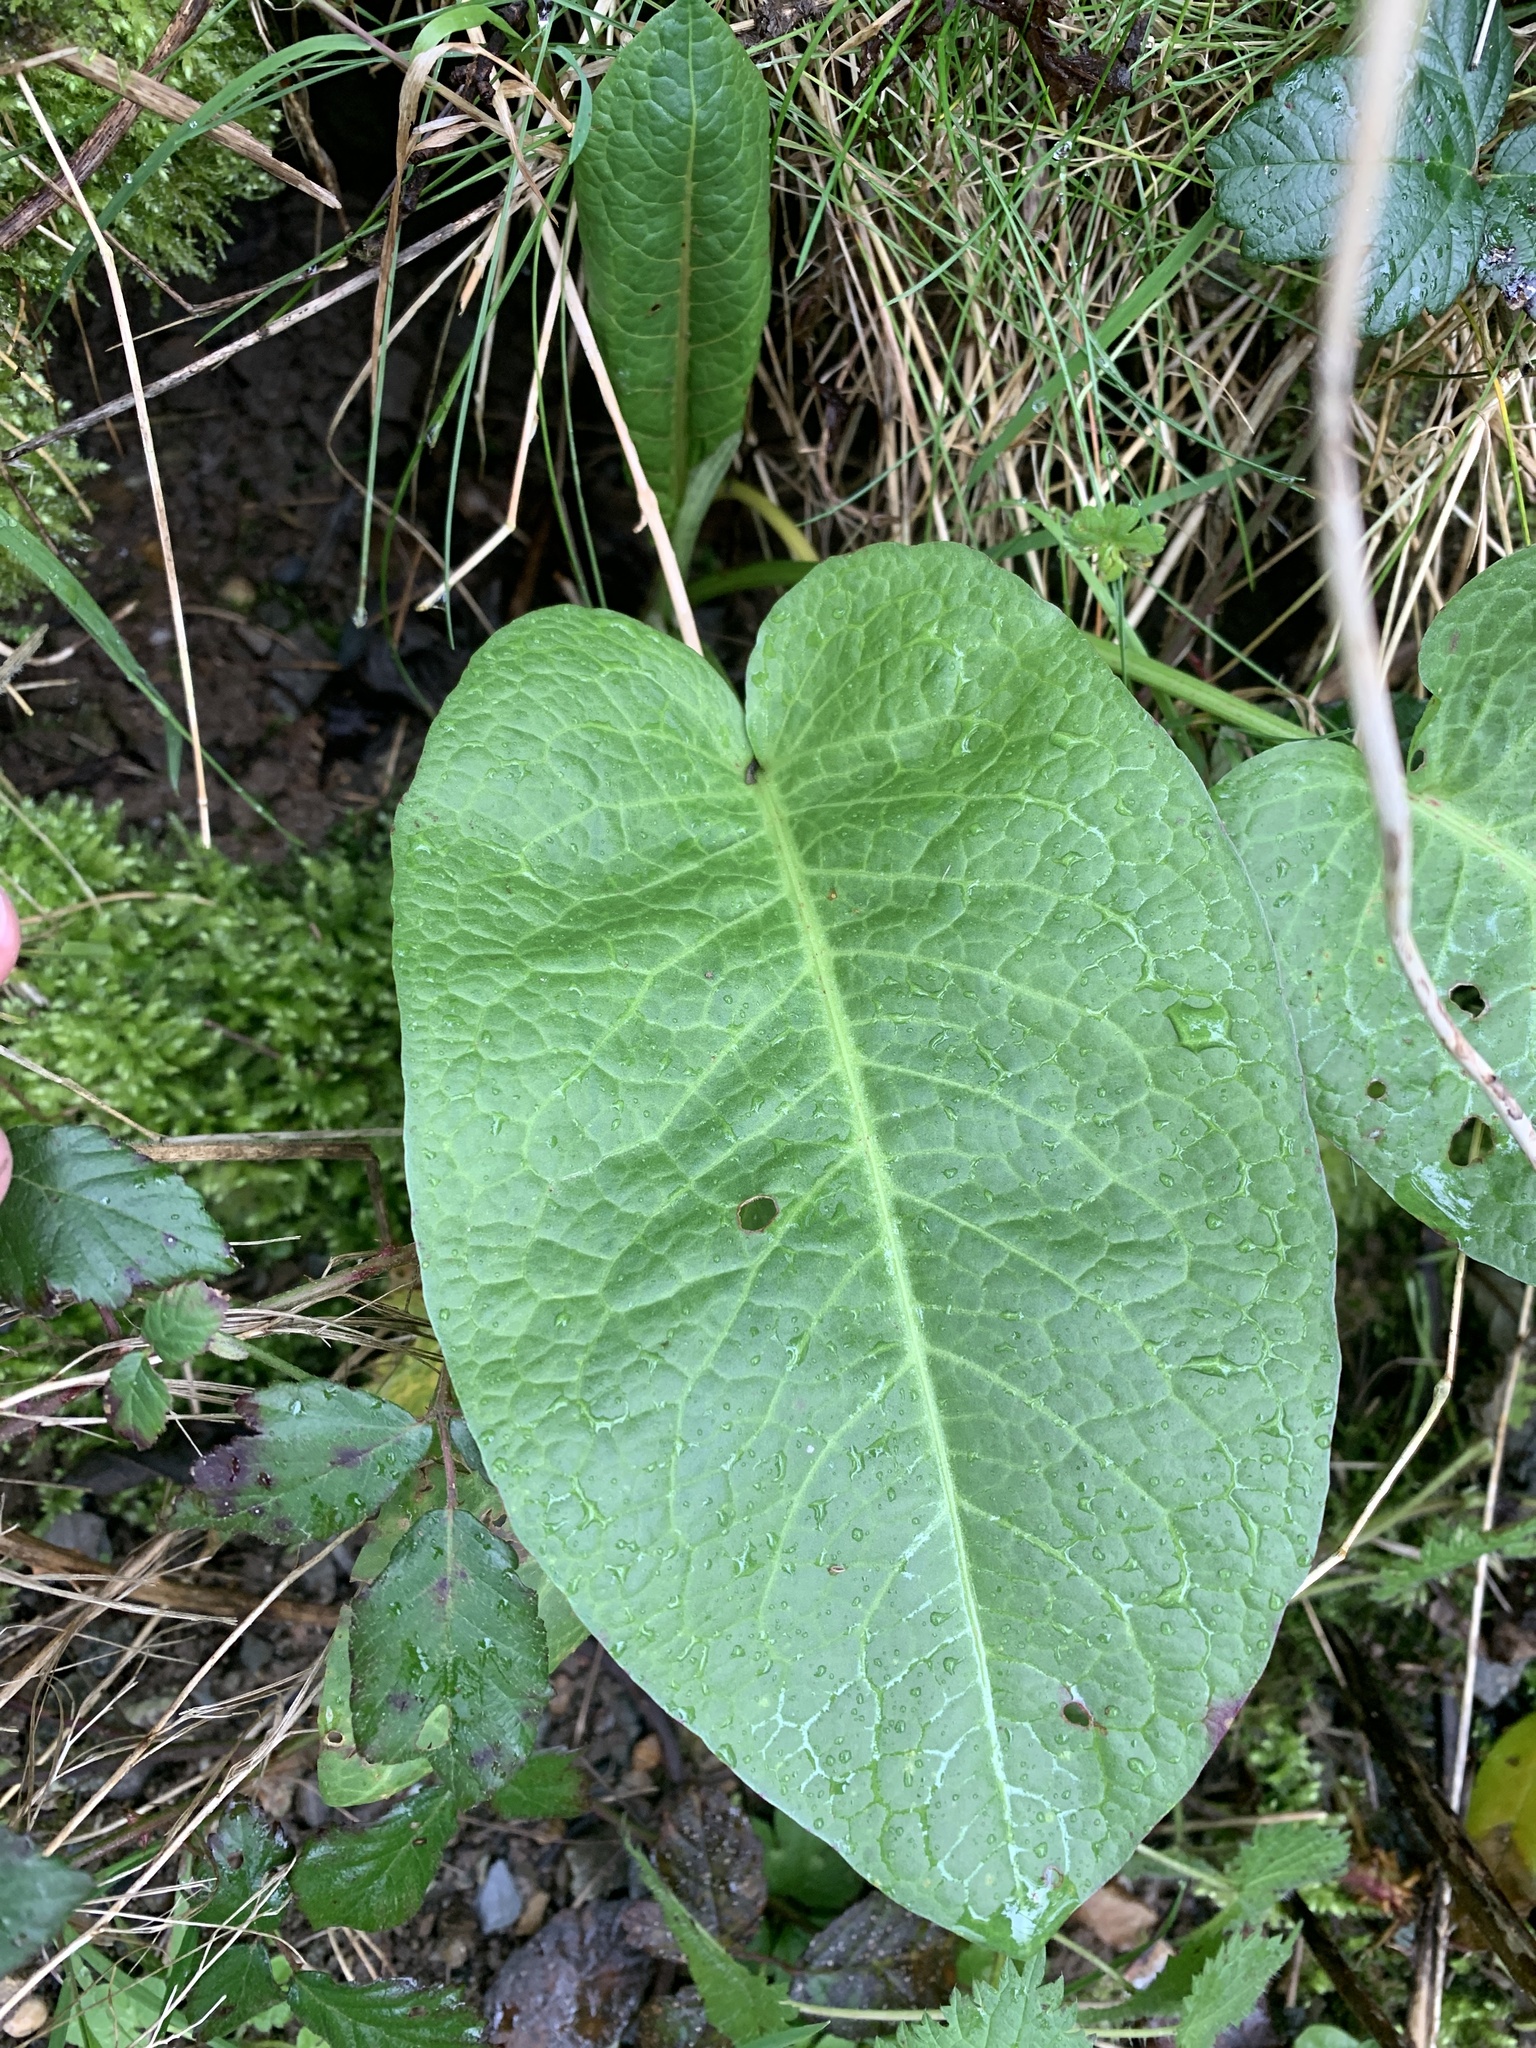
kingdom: Plantae
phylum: Tracheophyta
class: Magnoliopsida
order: Caryophyllales
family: Polygonaceae
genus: Rumex
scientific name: Rumex obtusifolius
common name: Bitter dock
